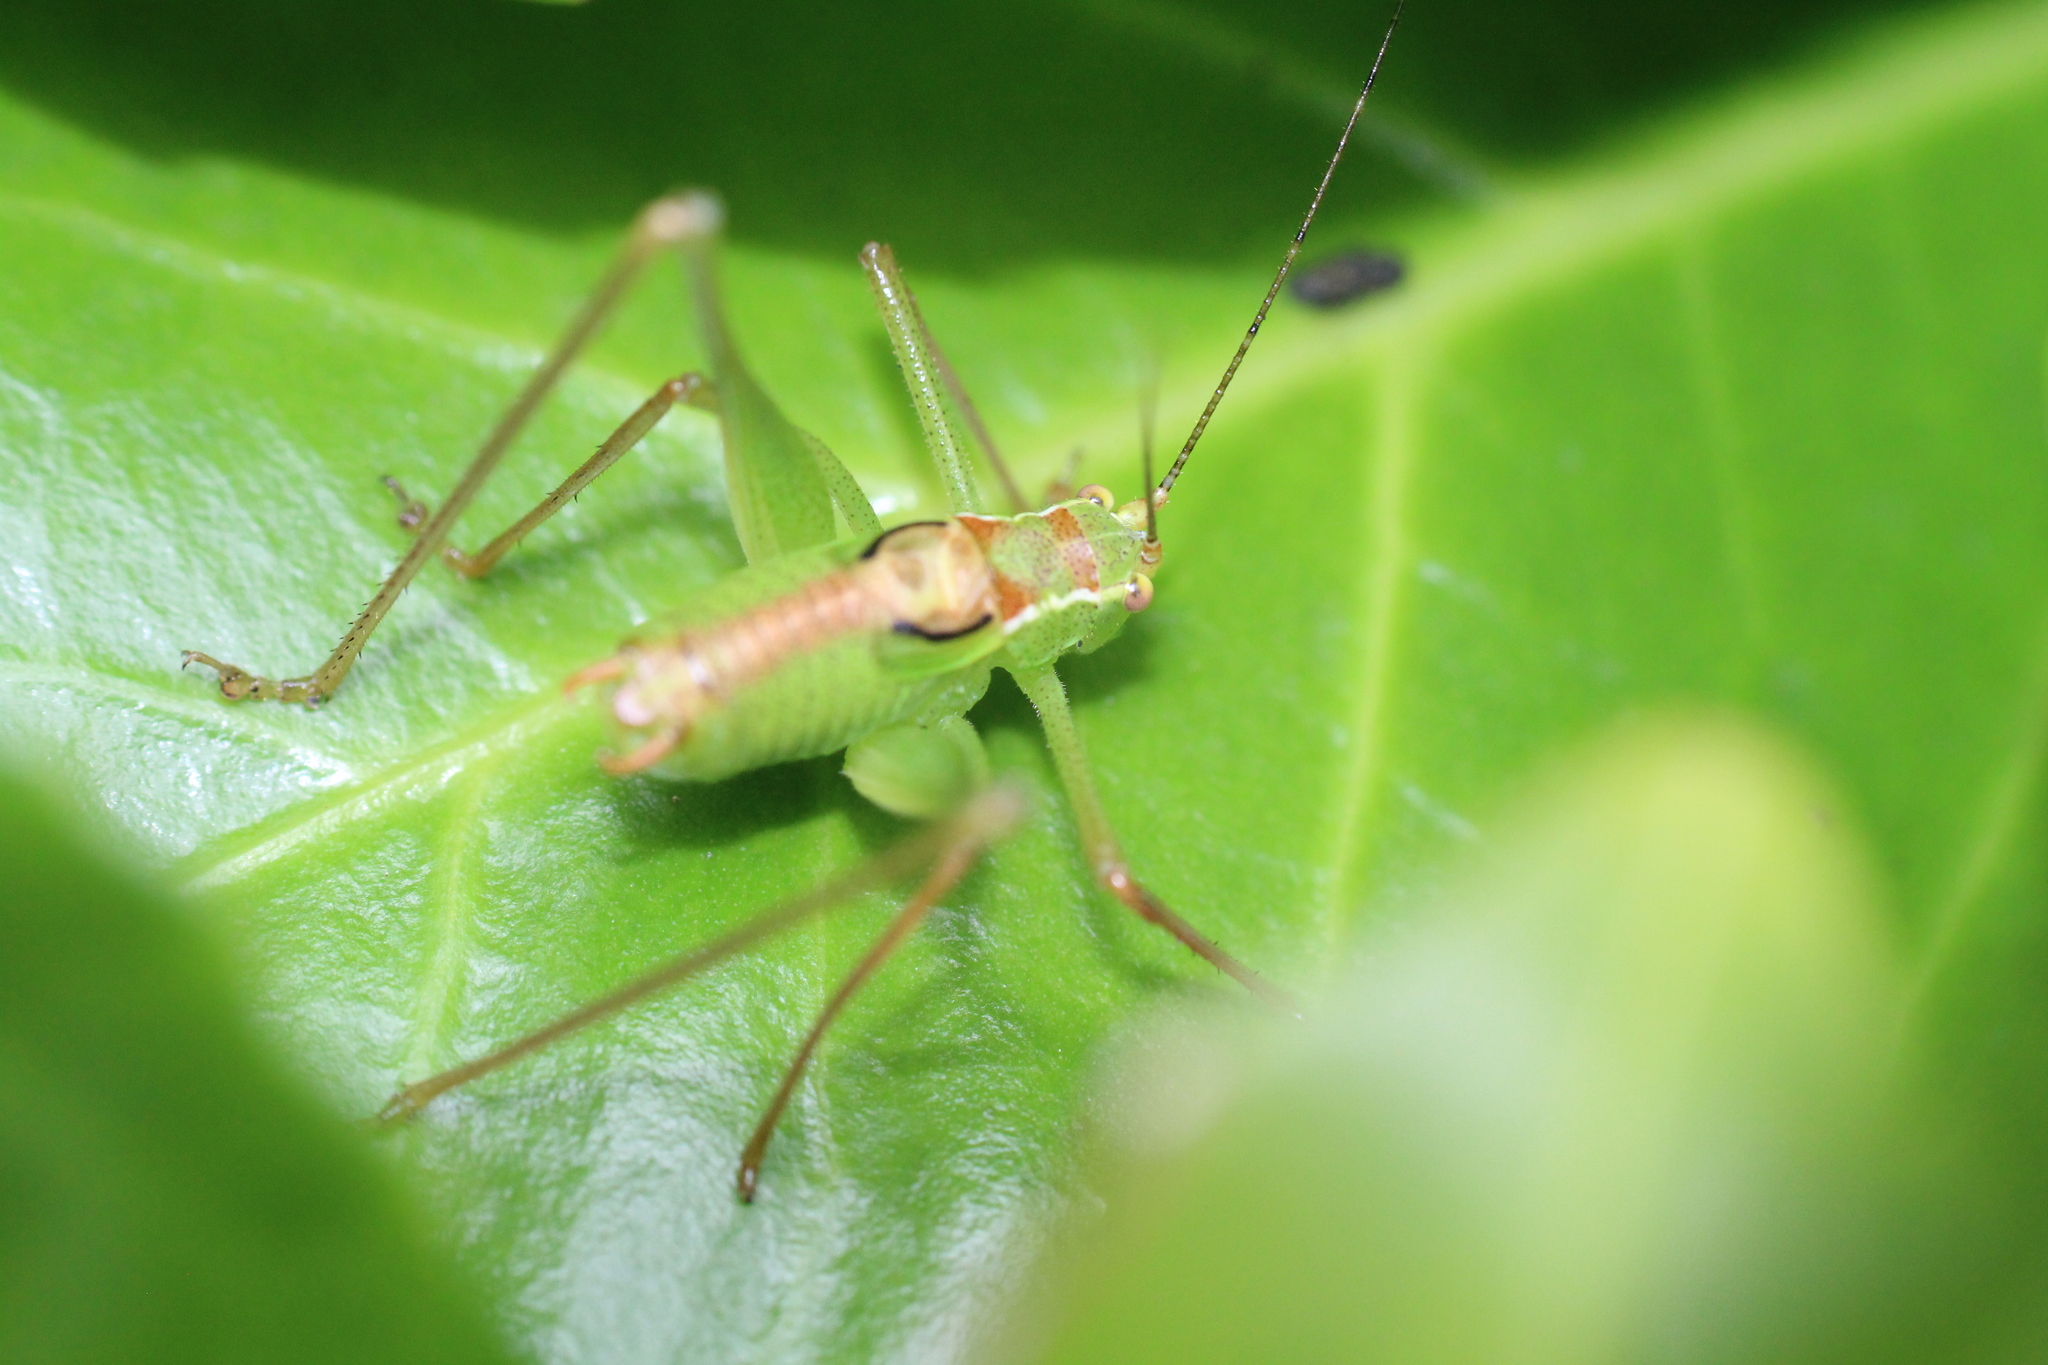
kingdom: Animalia
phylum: Arthropoda
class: Insecta
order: Orthoptera
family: Tettigoniidae
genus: Leptophyes
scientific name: Leptophyes punctatissima
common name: Speckled bush-cricket
